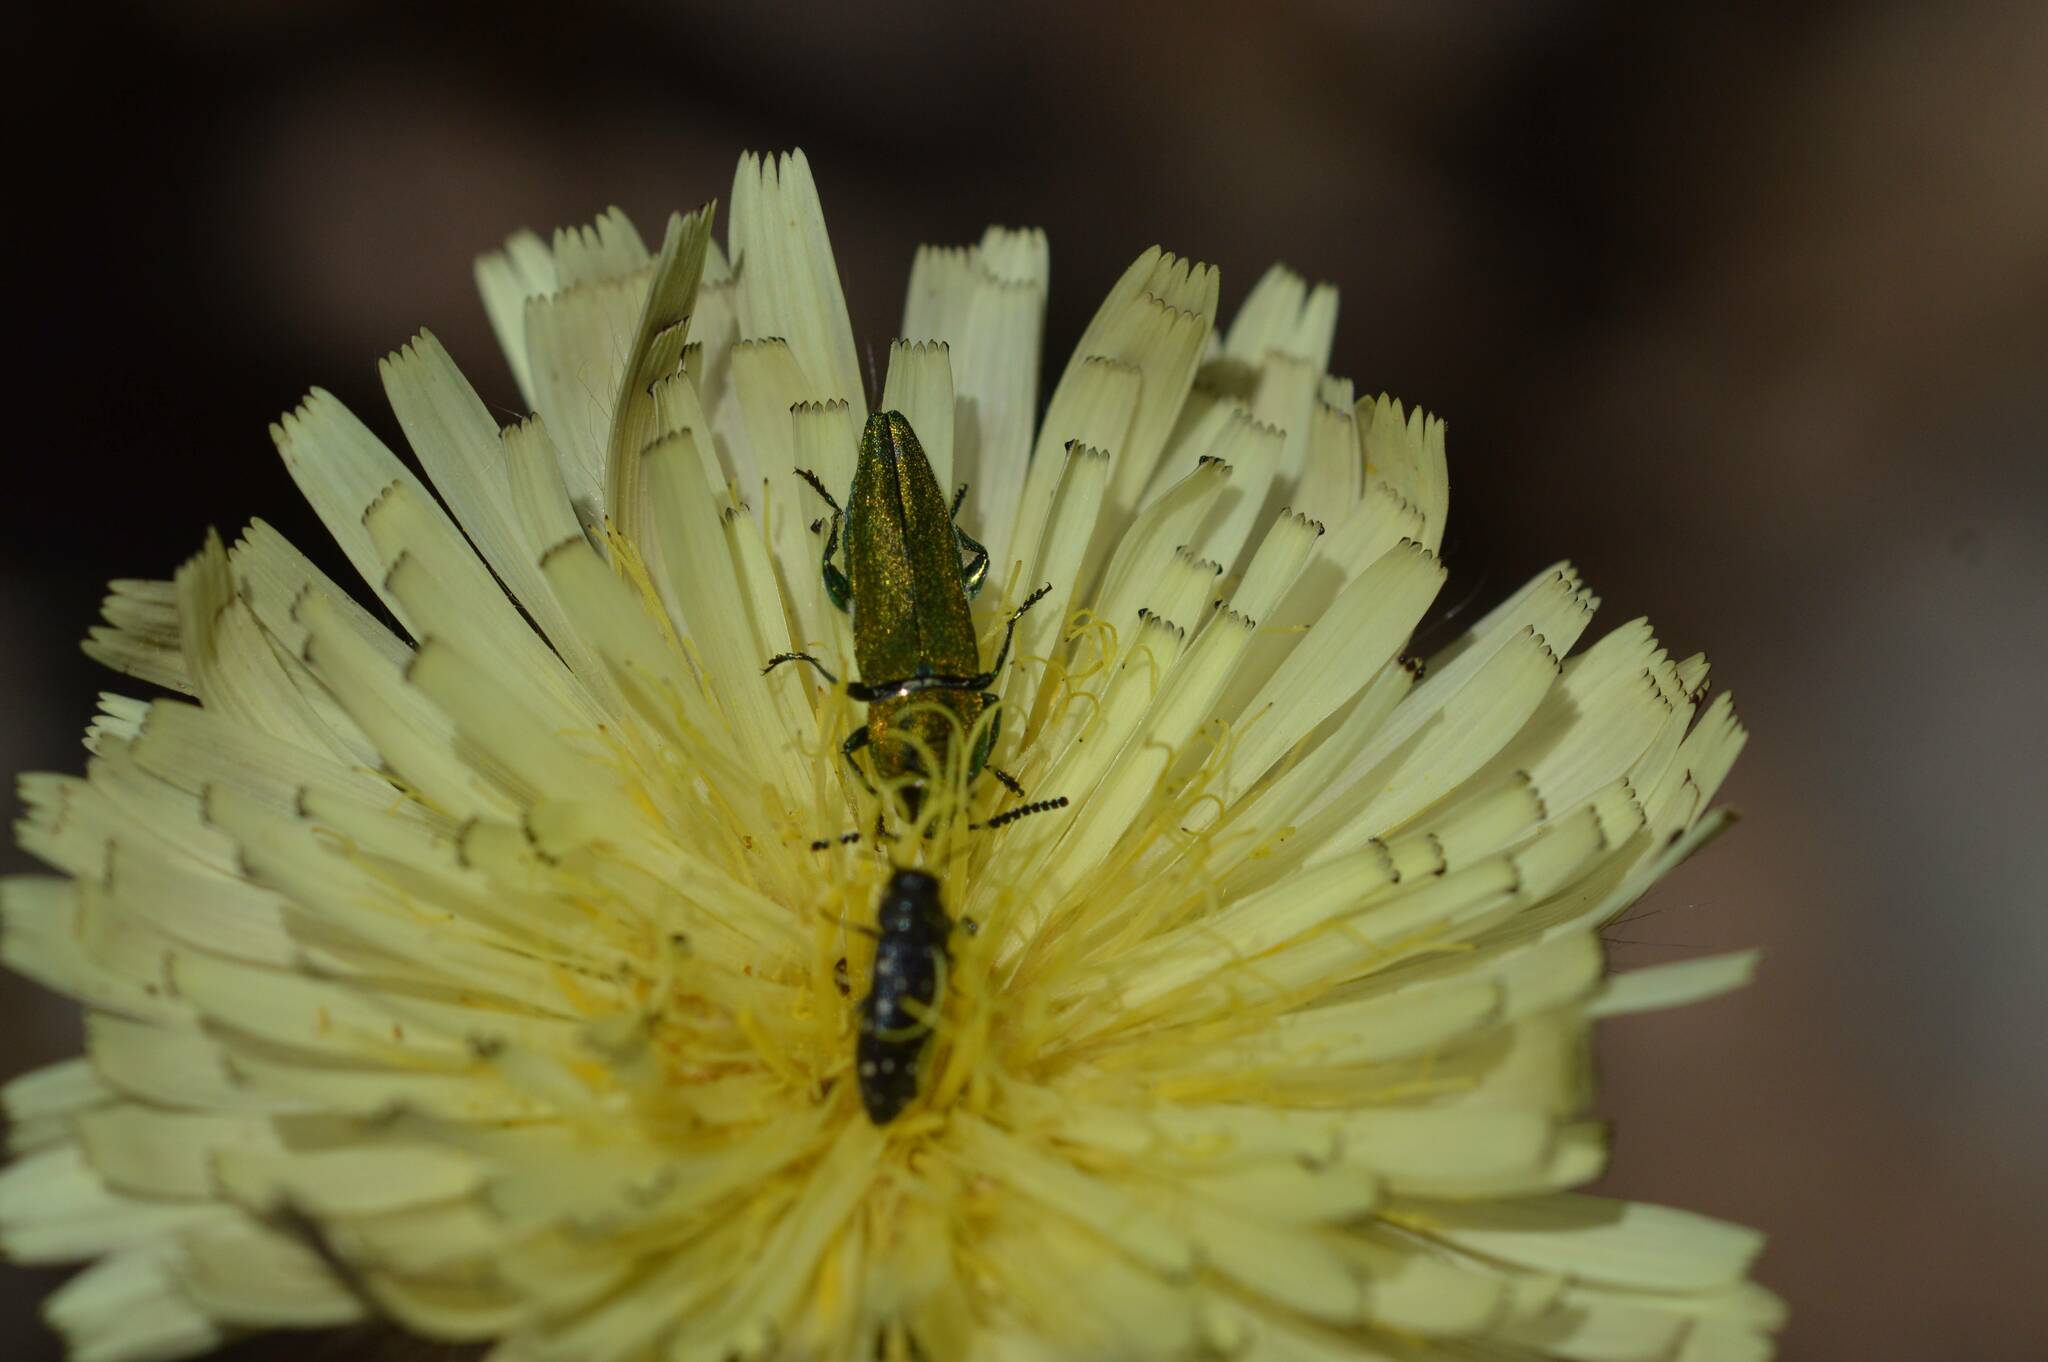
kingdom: Animalia
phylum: Arthropoda
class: Insecta
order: Coleoptera
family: Buprestidae
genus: Anthaxia
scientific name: Anthaxia hungarica
